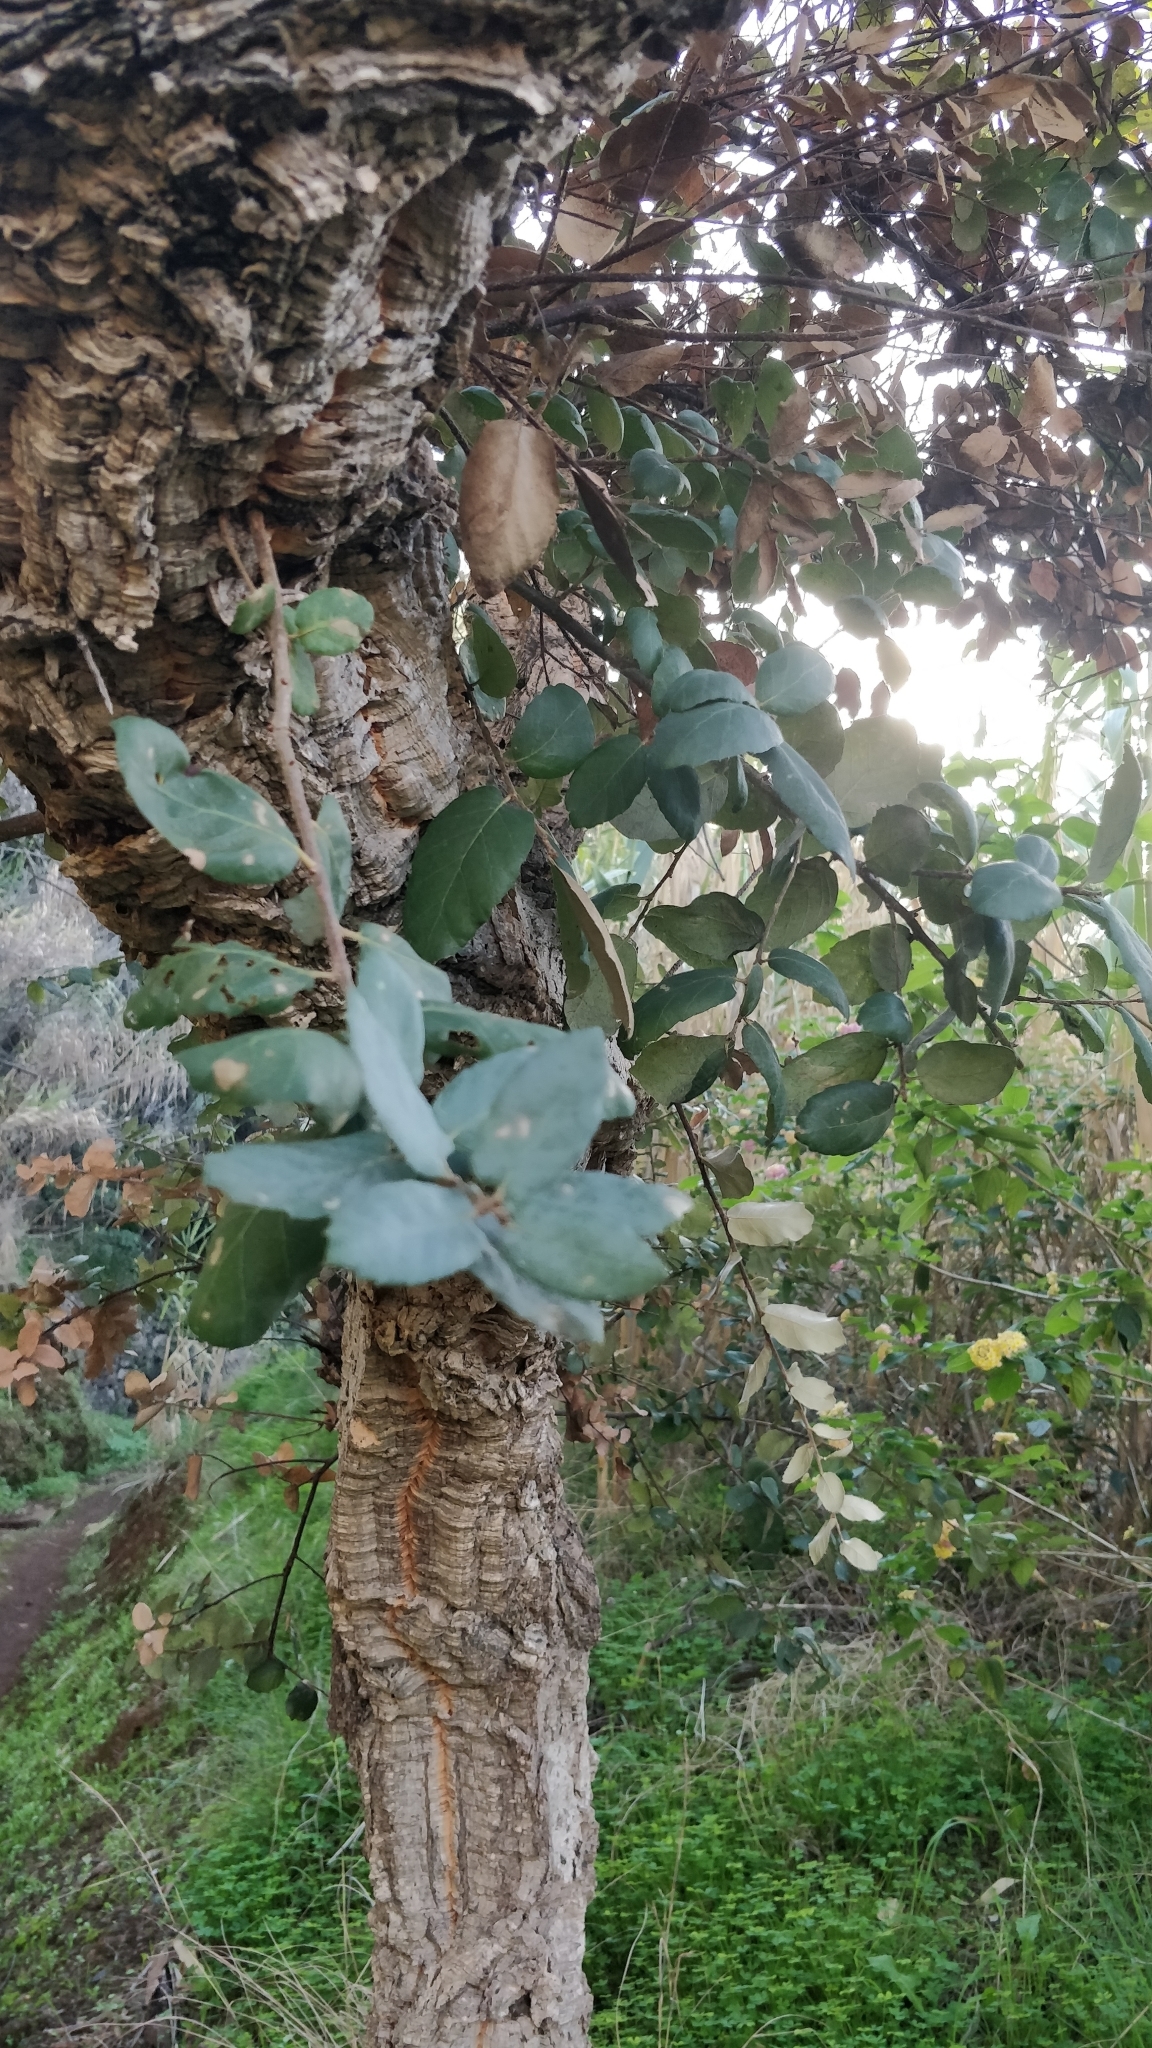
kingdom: Plantae
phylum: Tracheophyta
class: Magnoliopsida
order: Fagales
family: Fagaceae
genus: Quercus
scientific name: Quercus ilex
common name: Evergreen oak
